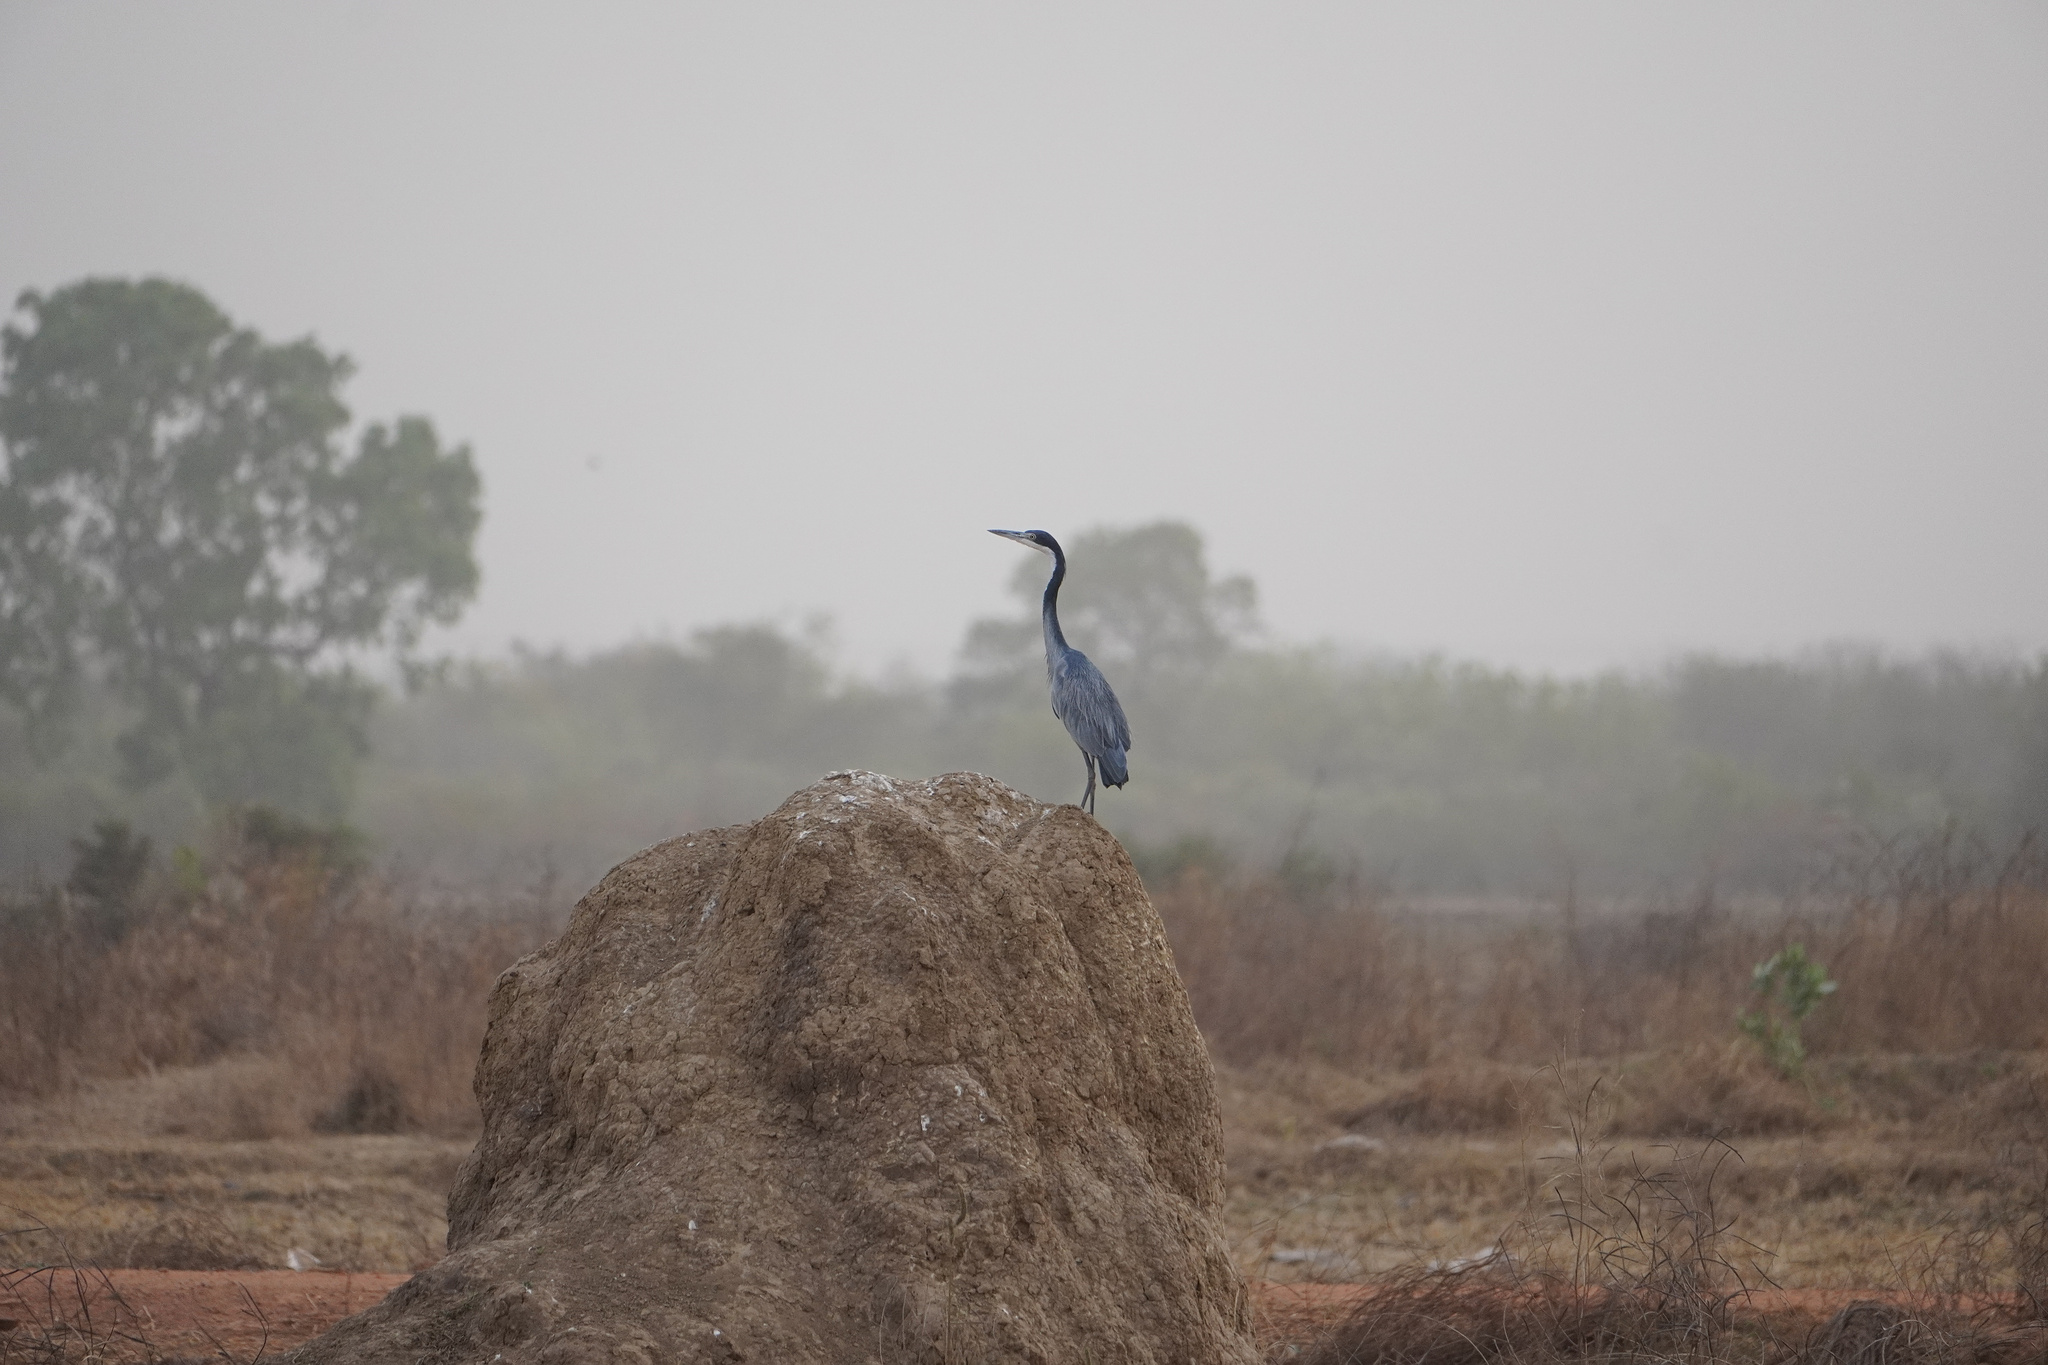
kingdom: Animalia
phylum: Chordata
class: Aves
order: Pelecaniformes
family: Ardeidae
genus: Ardea
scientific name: Ardea melanocephala
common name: Black-headed heron
